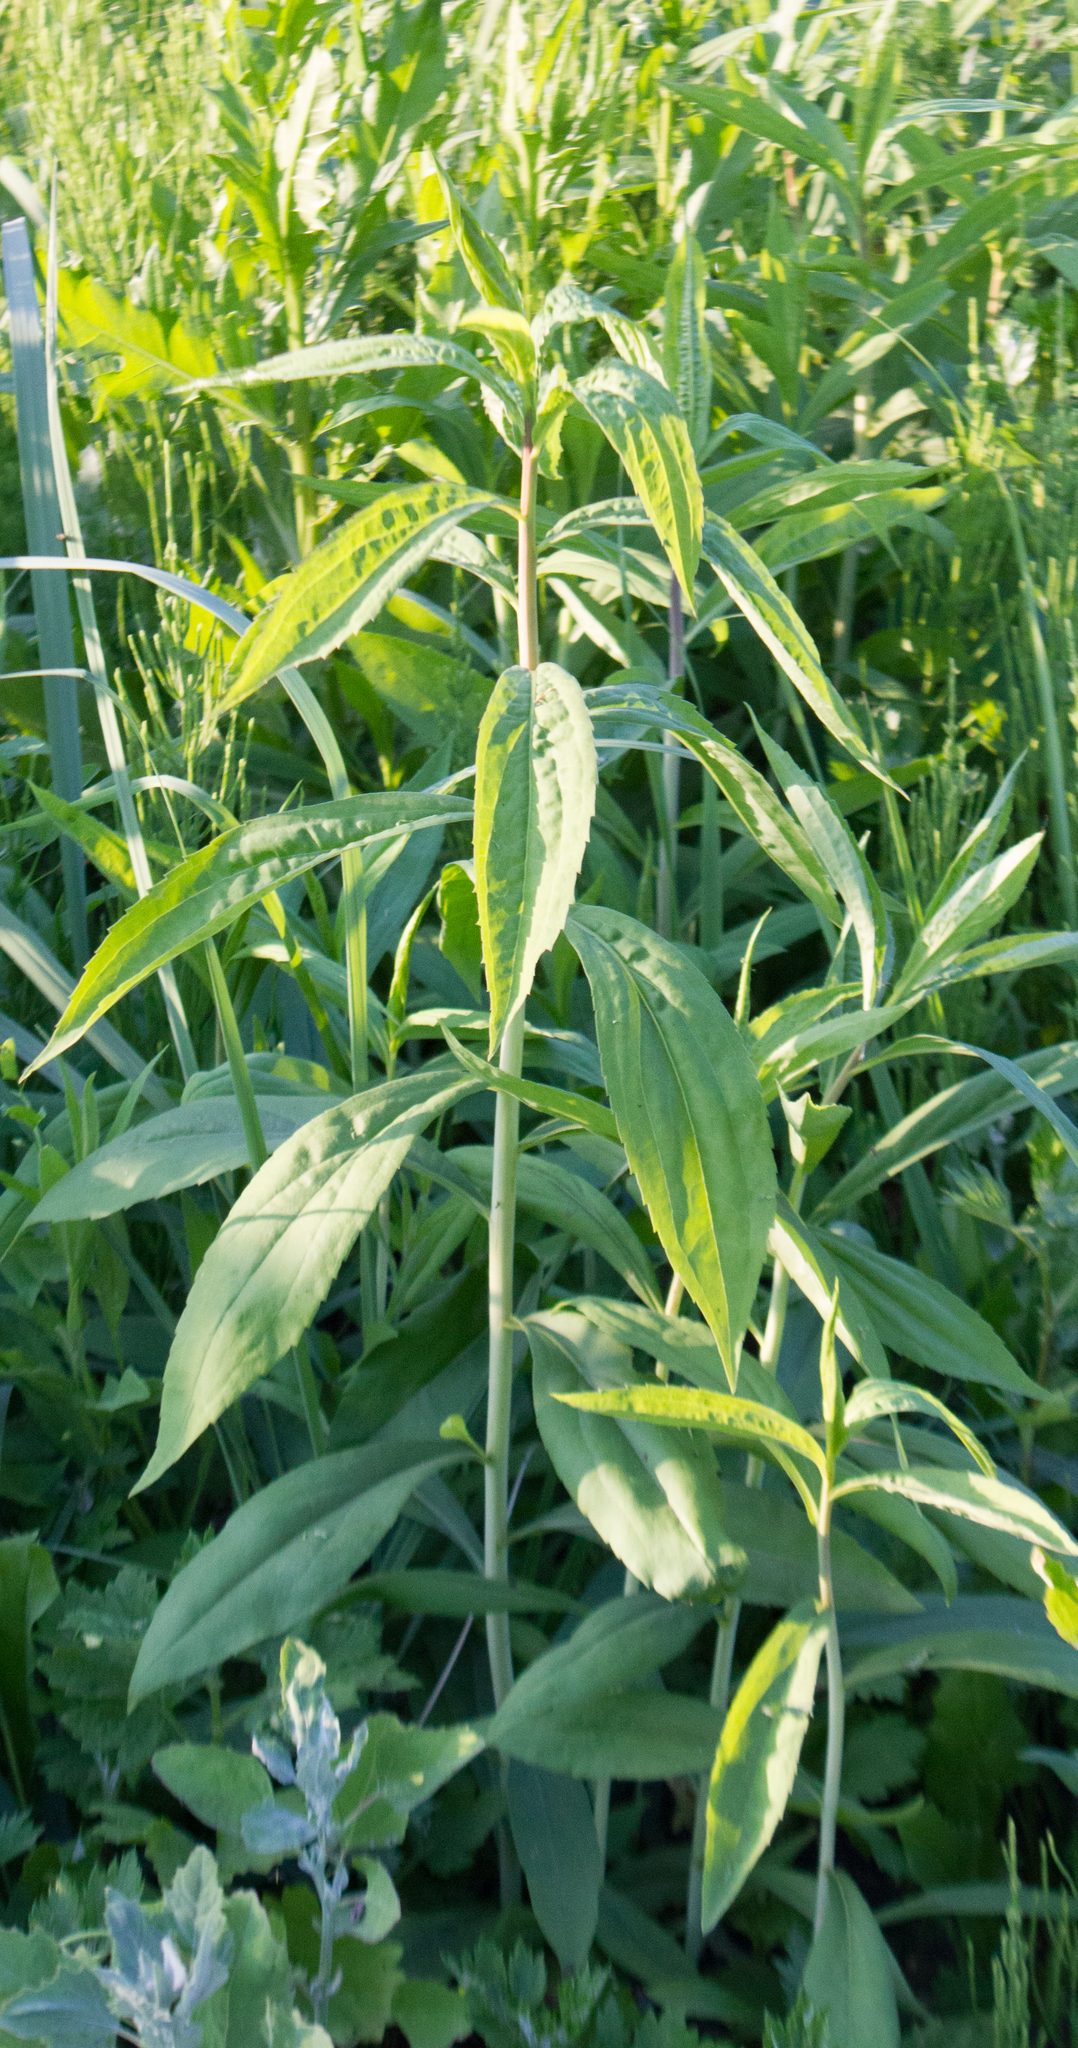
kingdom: Plantae
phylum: Tracheophyta
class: Magnoliopsida
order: Asterales
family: Asteraceae
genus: Solidago
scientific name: Solidago gigantea
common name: Giant goldenrod
